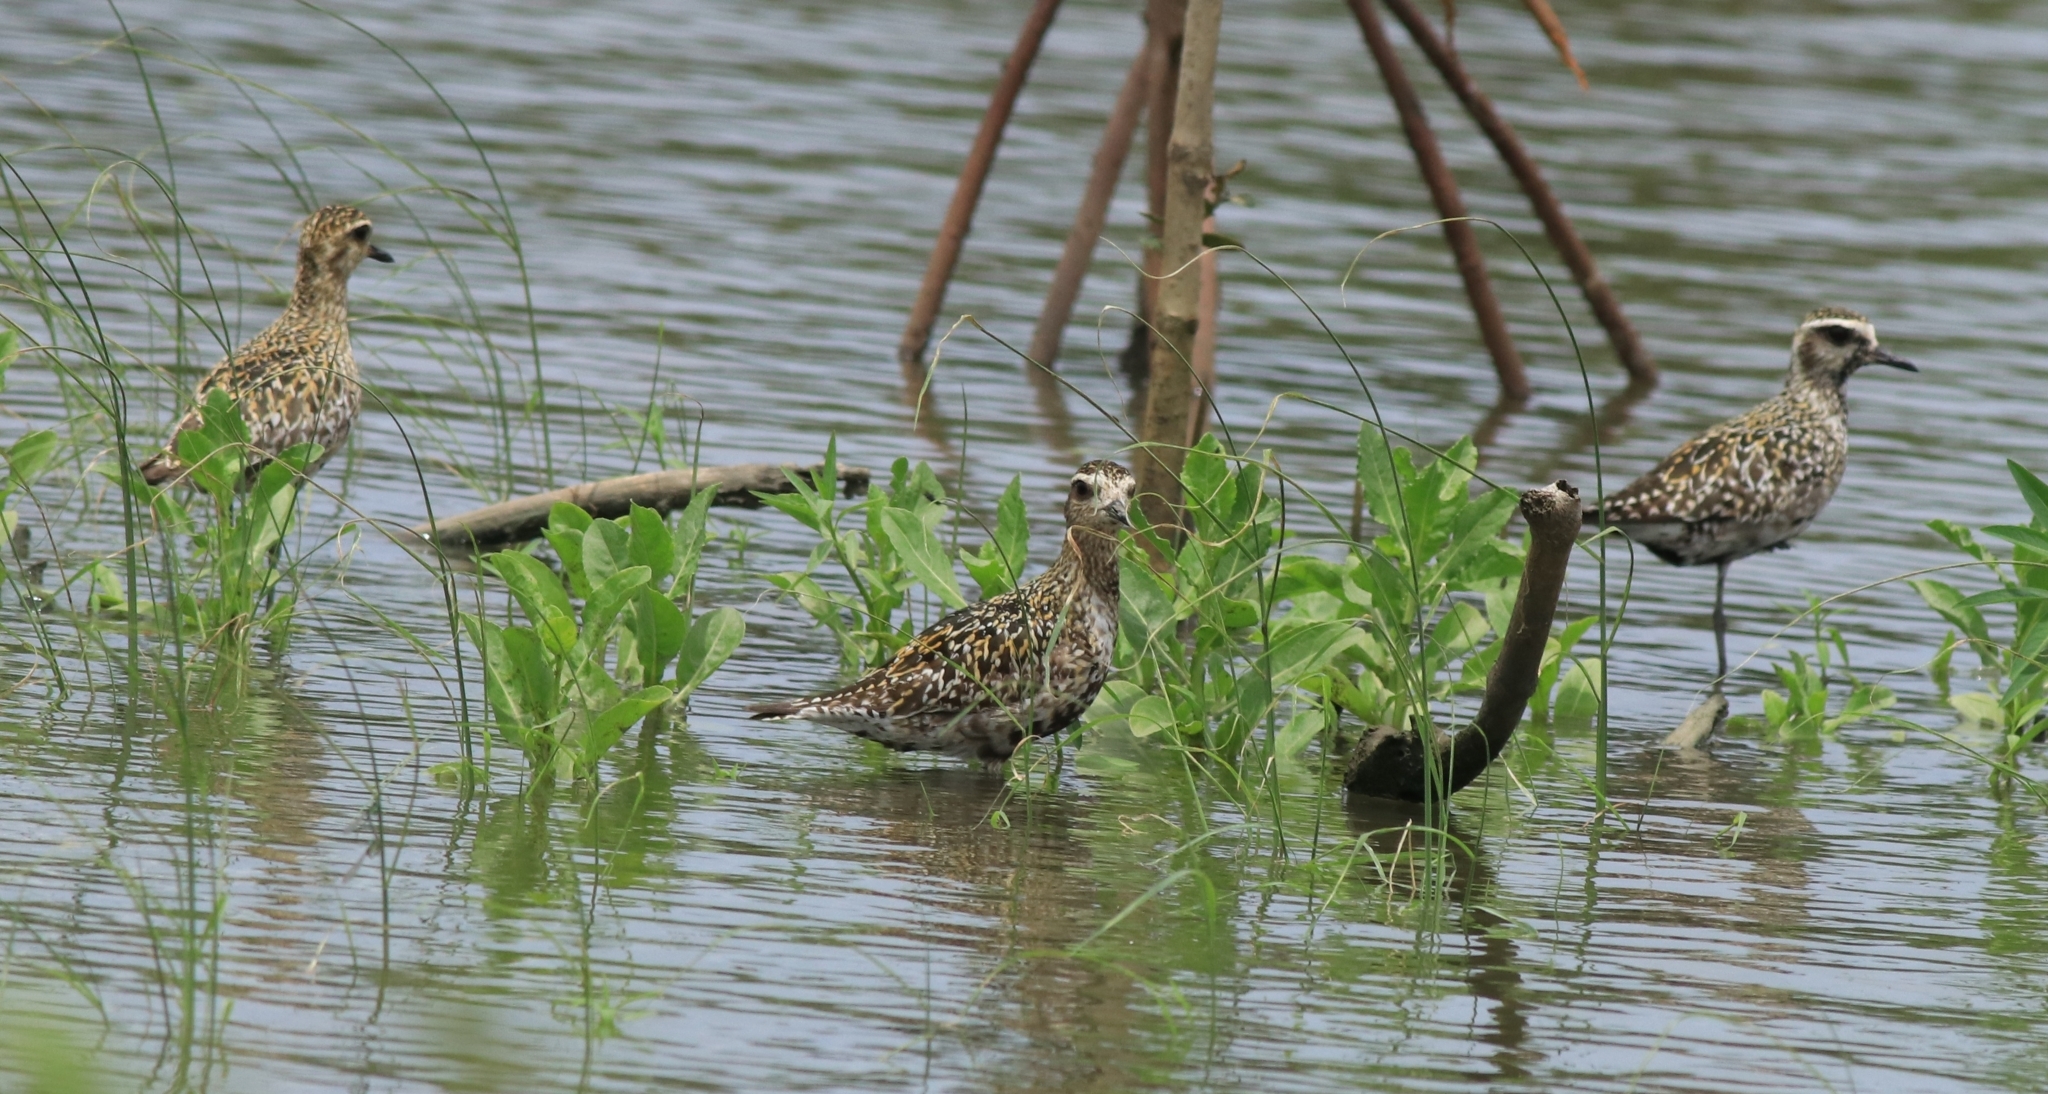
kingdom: Animalia
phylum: Chordata
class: Aves
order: Charadriiformes
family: Charadriidae
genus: Pluvialis
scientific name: Pluvialis fulva
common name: Pacific golden plover
